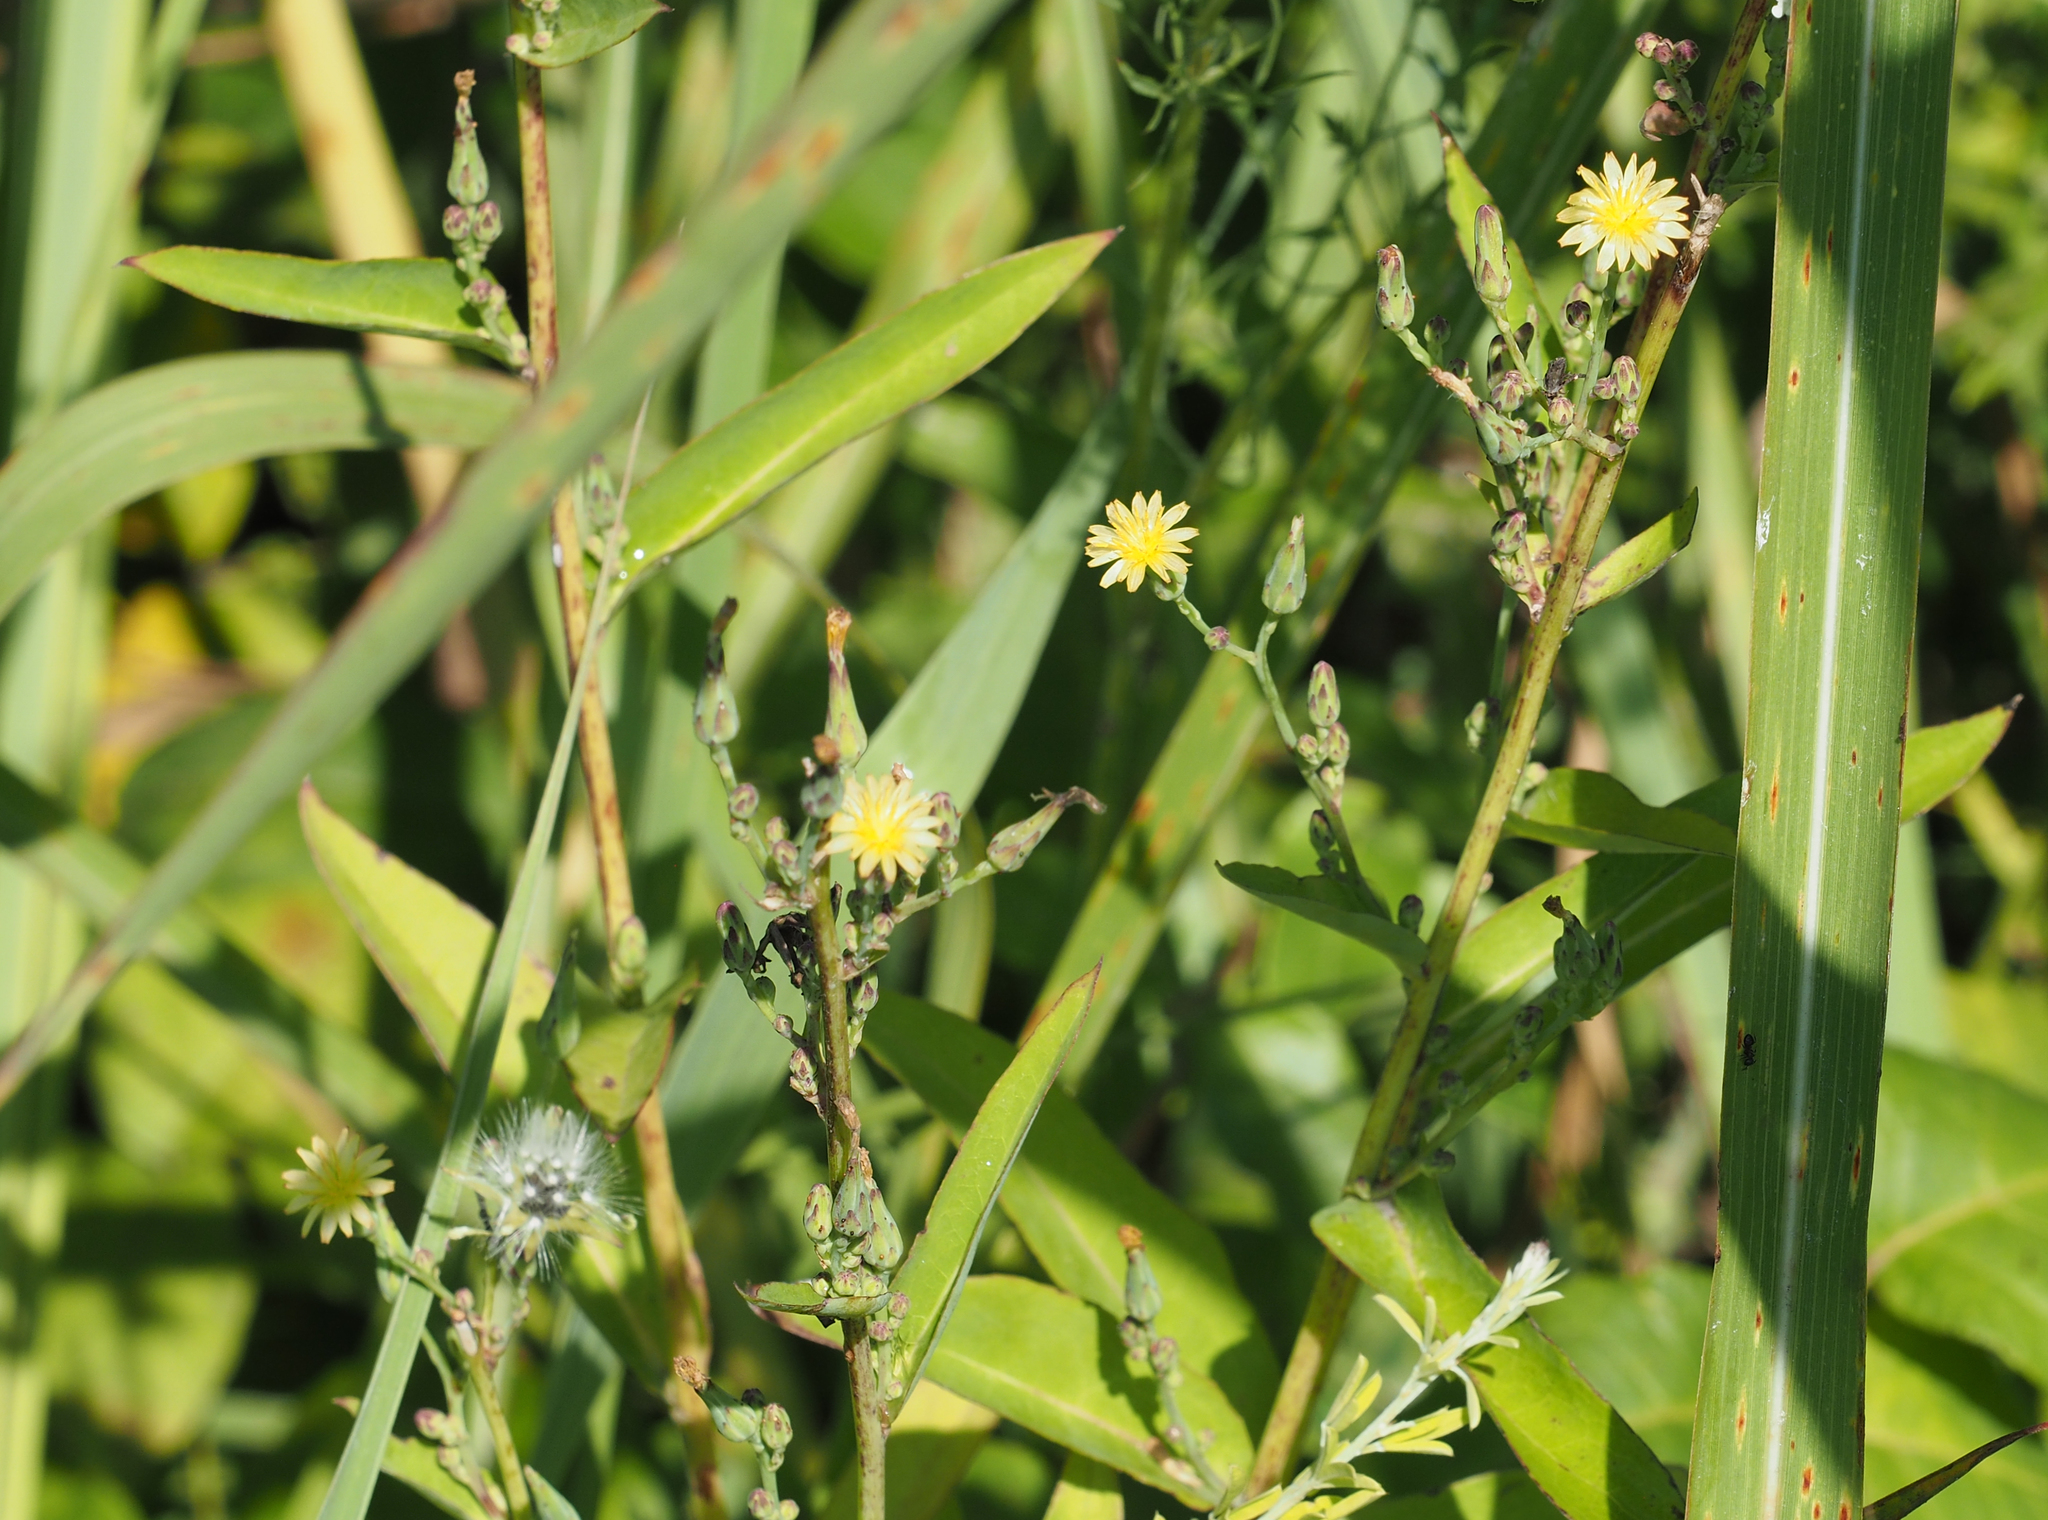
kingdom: Plantae
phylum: Tracheophyta
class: Magnoliopsida
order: Asterales
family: Asteraceae
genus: Lactuca
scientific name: Lactuca canadensis
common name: Canada lettuce
